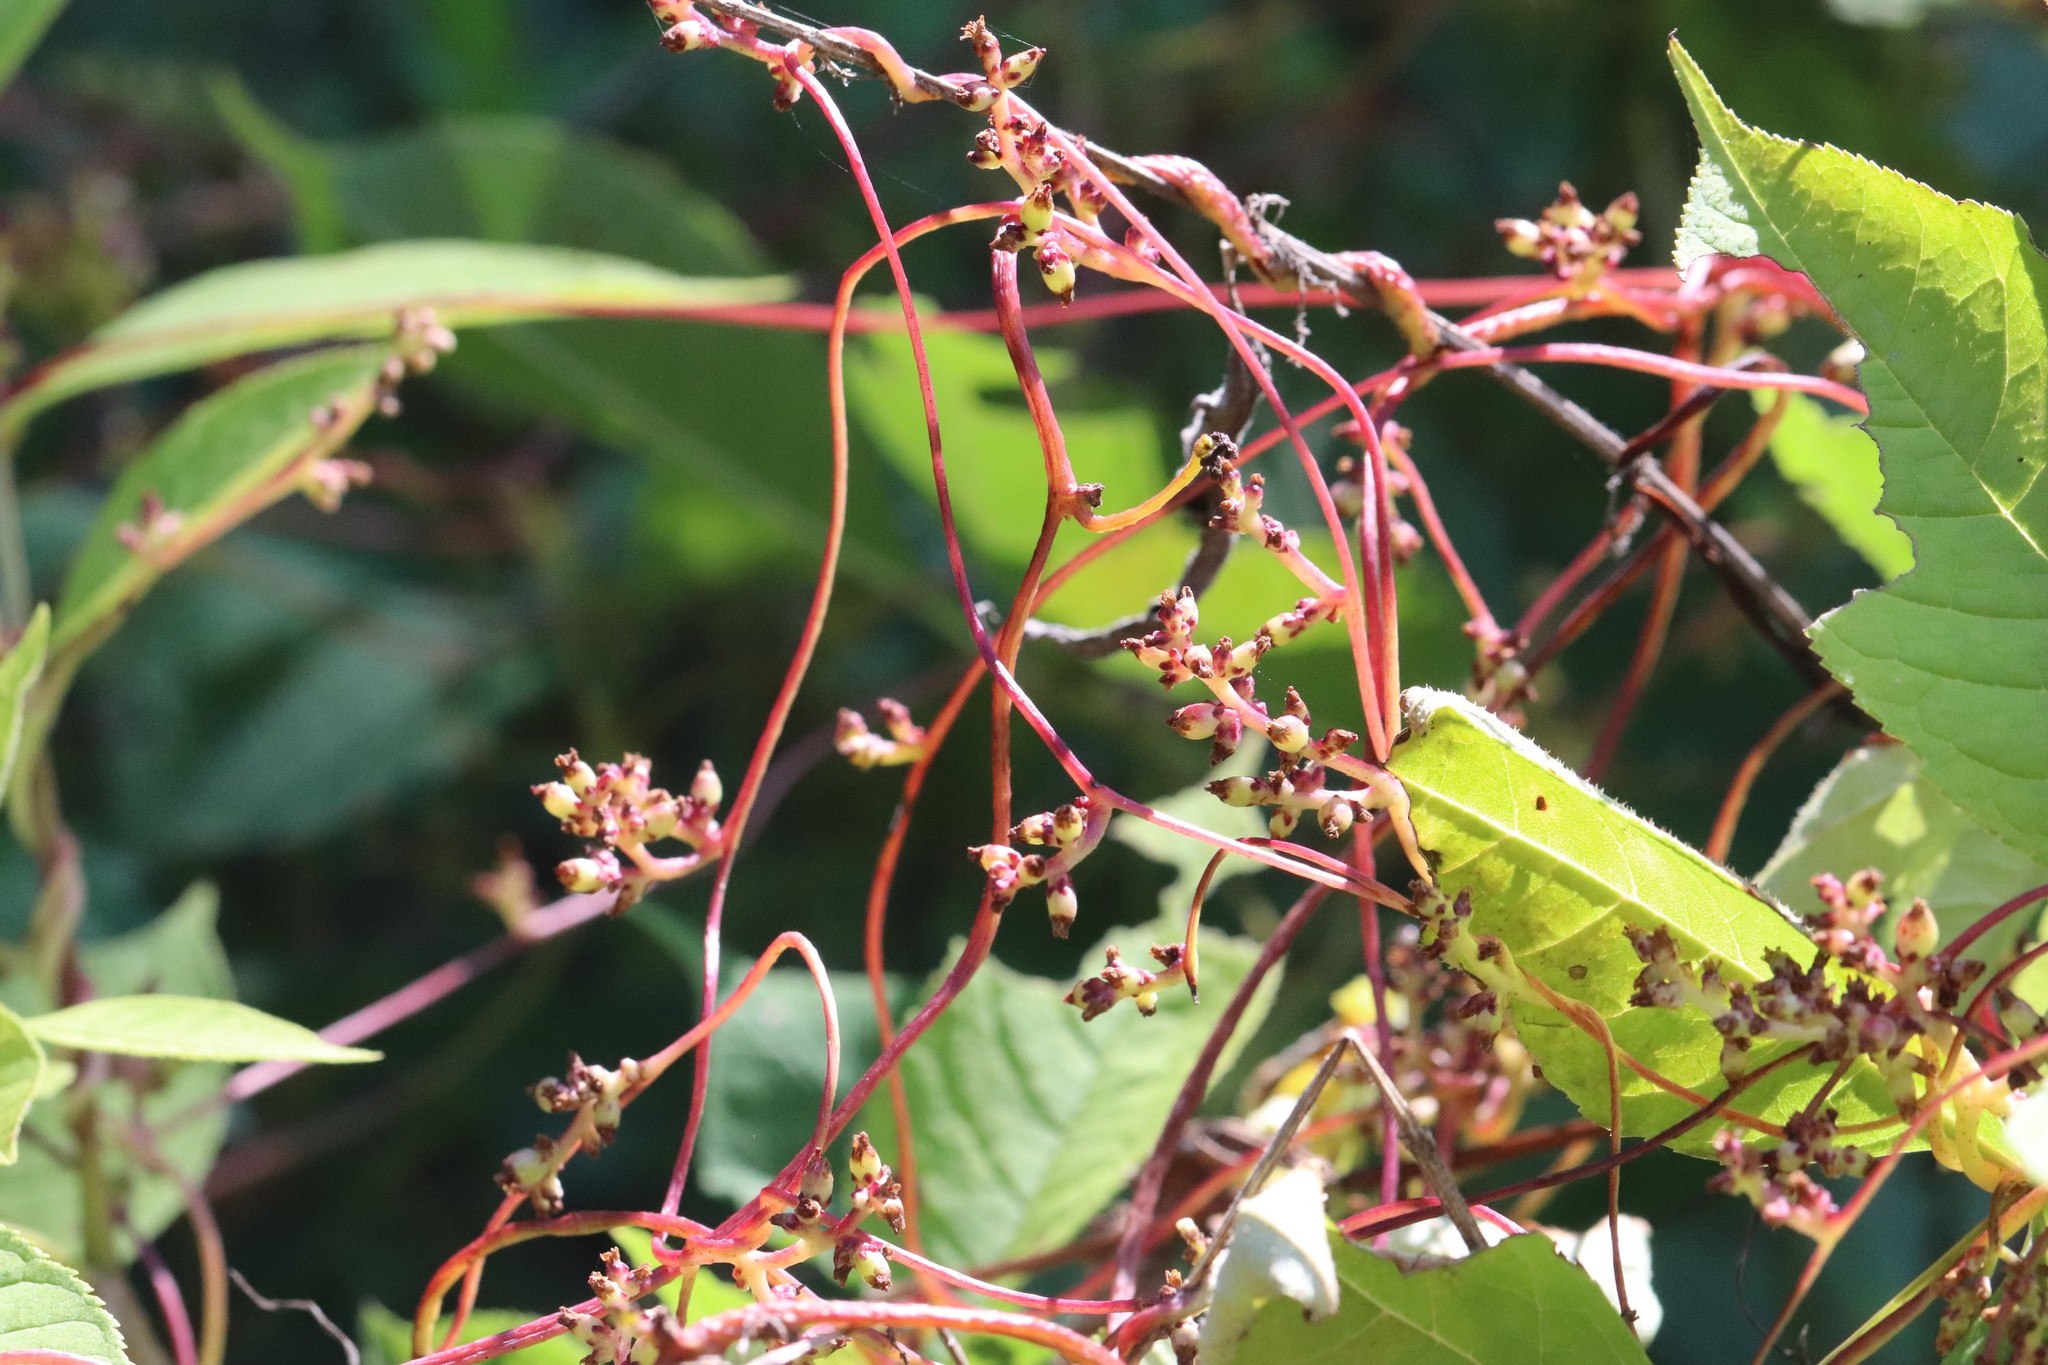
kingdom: Plantae
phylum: Tracheophyta
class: Magnoliopsida
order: Solanales
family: Convolvulaceae
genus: Cuscuta
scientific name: Cuscuta japonica
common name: Japanese dodder
